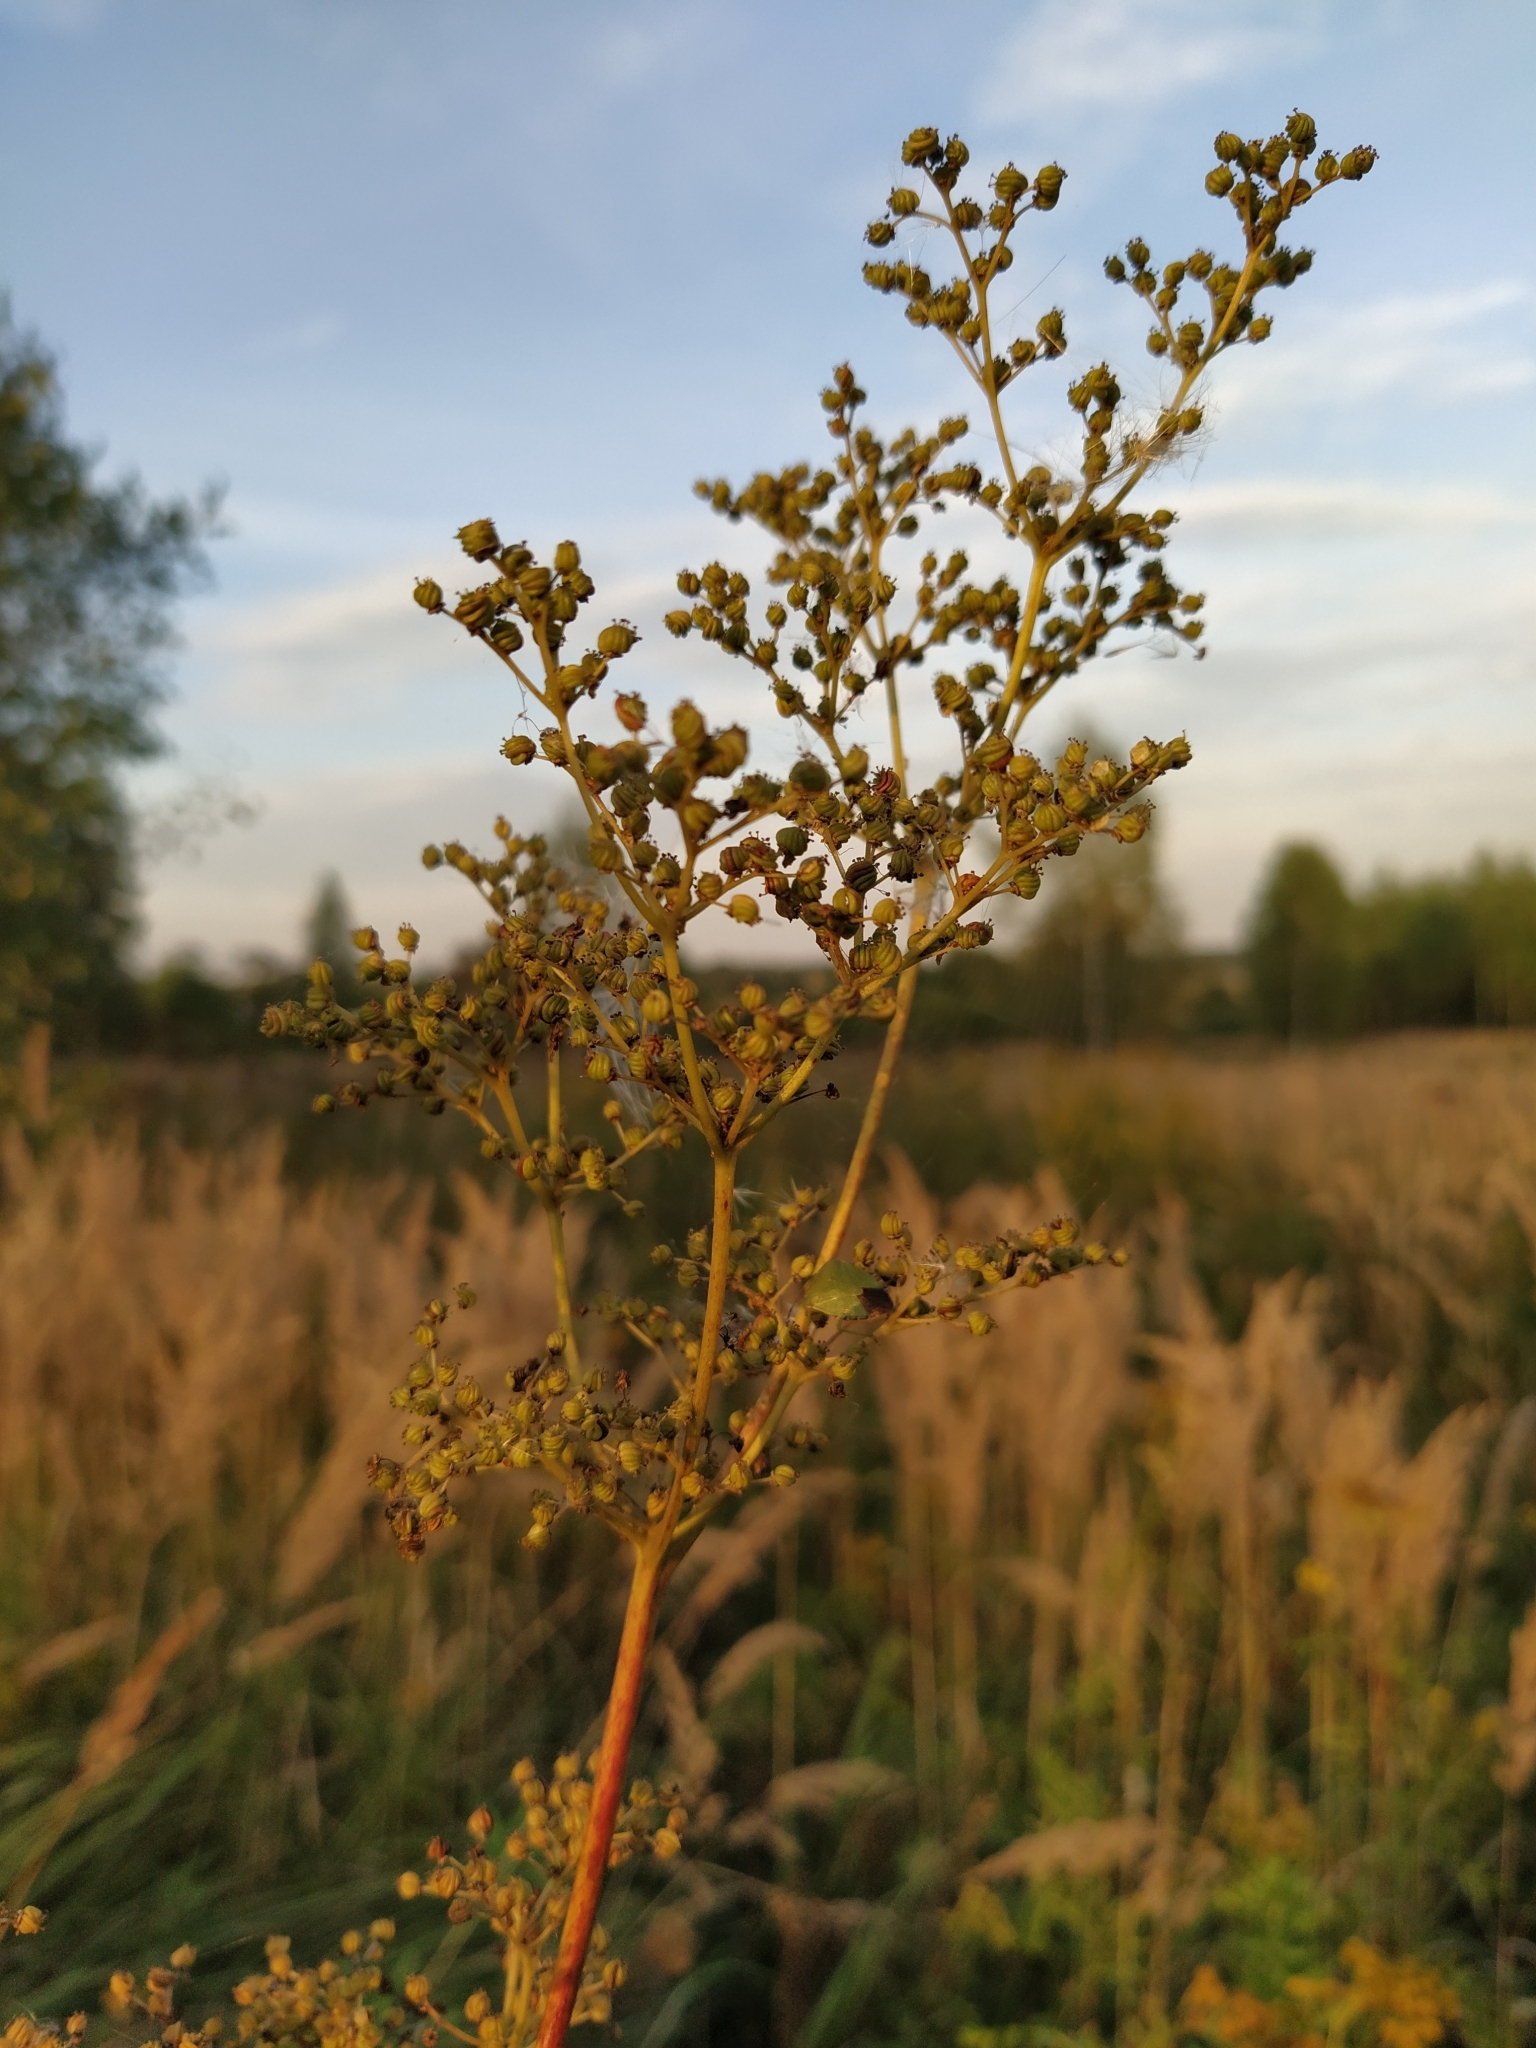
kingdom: Plantae
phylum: Tracheophyta
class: Magnoliopsida
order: Rosales
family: Rosaceae
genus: Filipendula
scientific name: Filipendula ulmaria
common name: Meadowsweet
